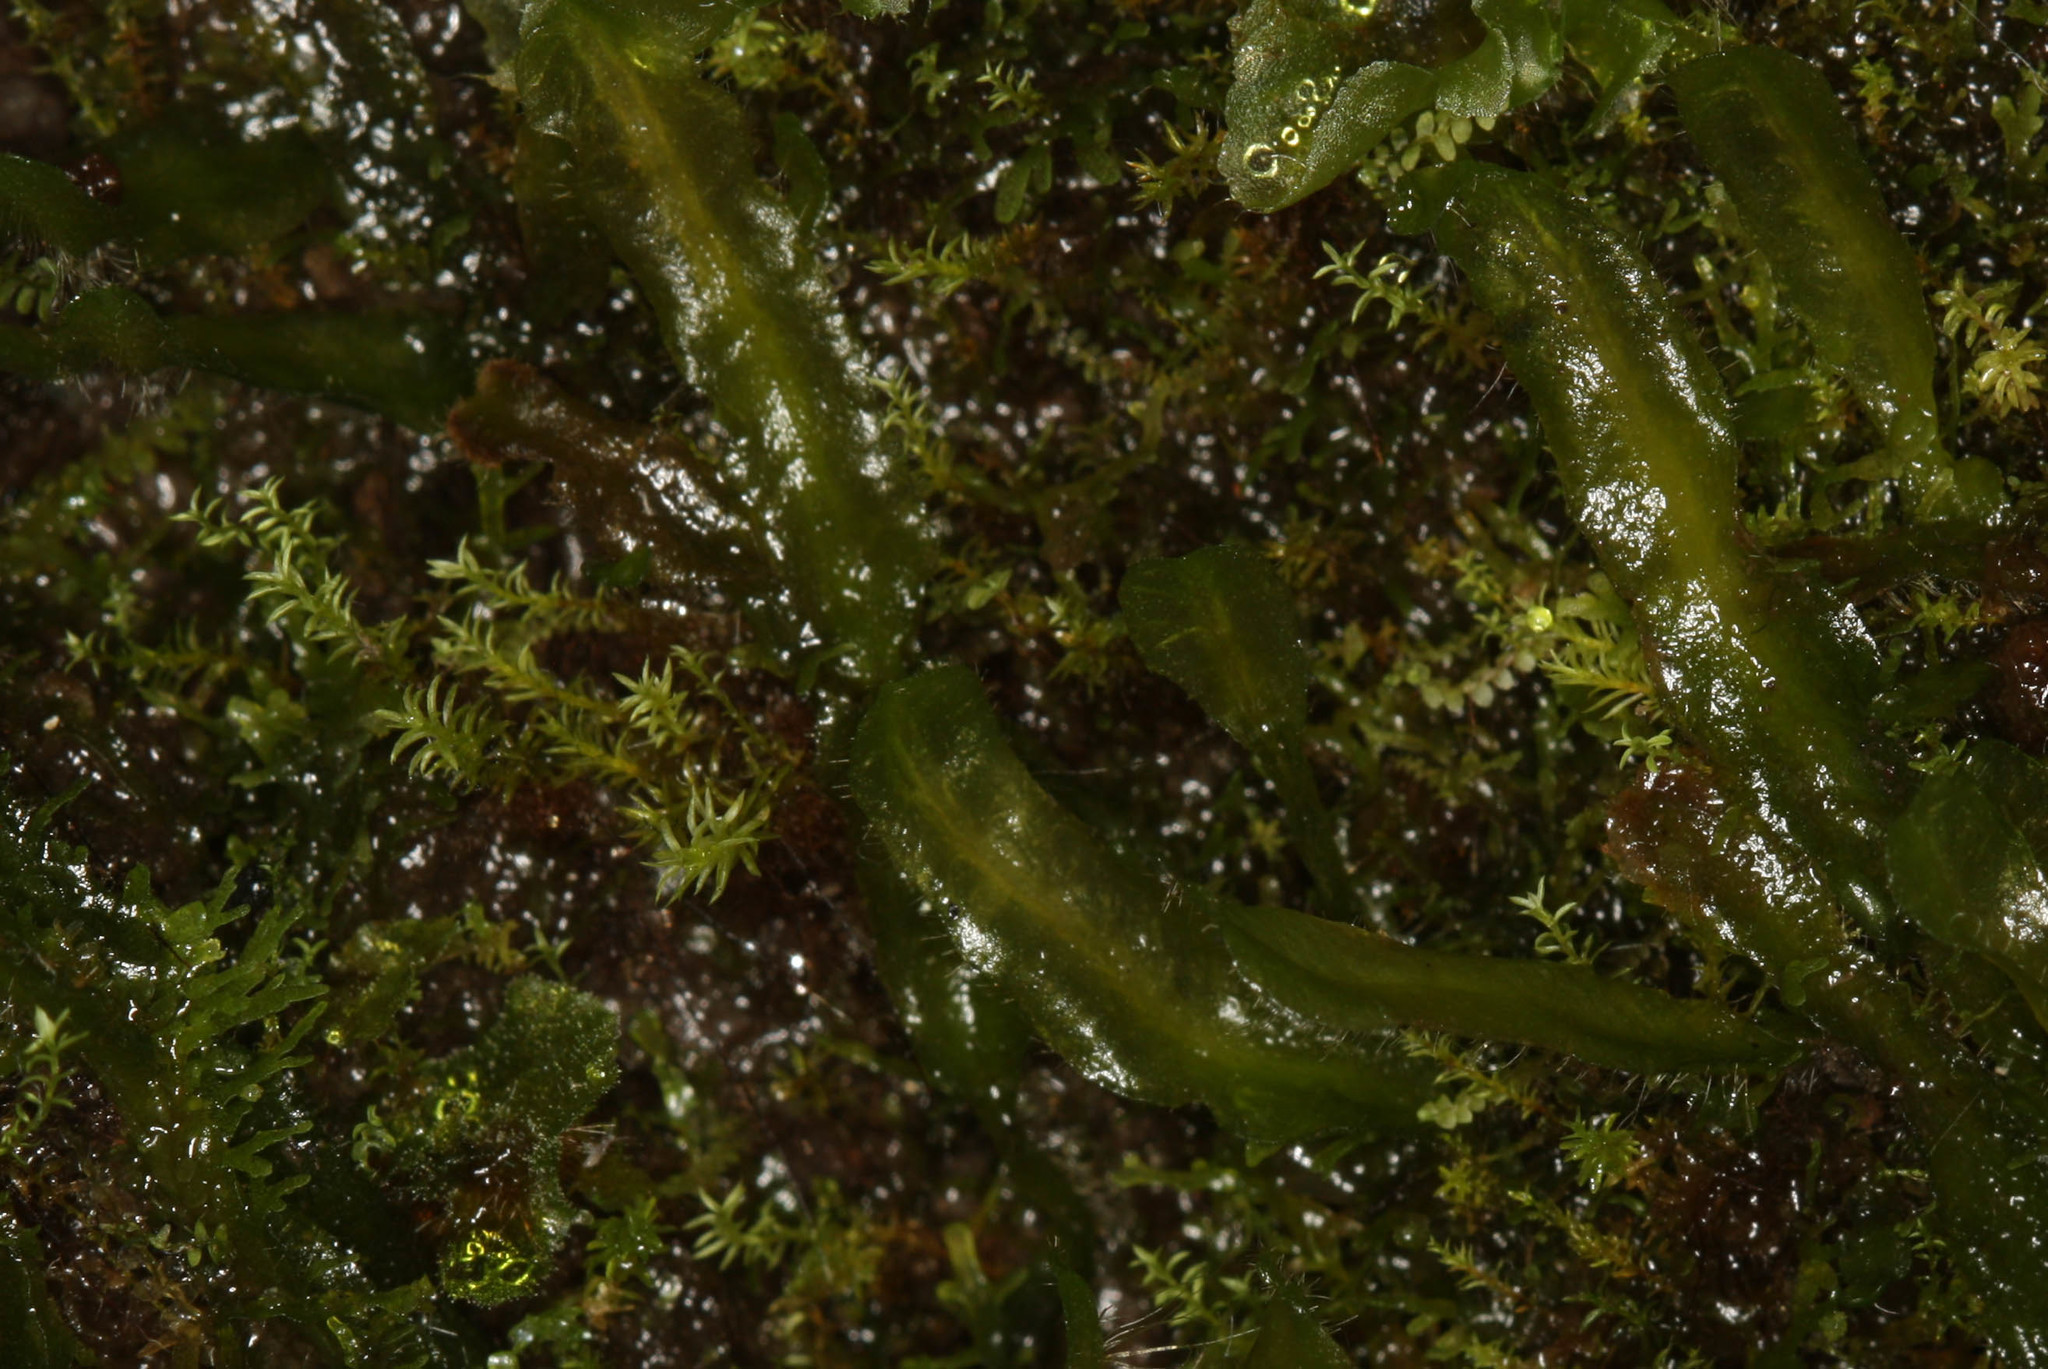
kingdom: Plantae
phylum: Marchantiophyta
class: Marchantiopsida
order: Marchantiales
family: Dumortieraceae
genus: Dumortiera
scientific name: Dumortiera hirsuta
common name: Dumortier's liverwort
